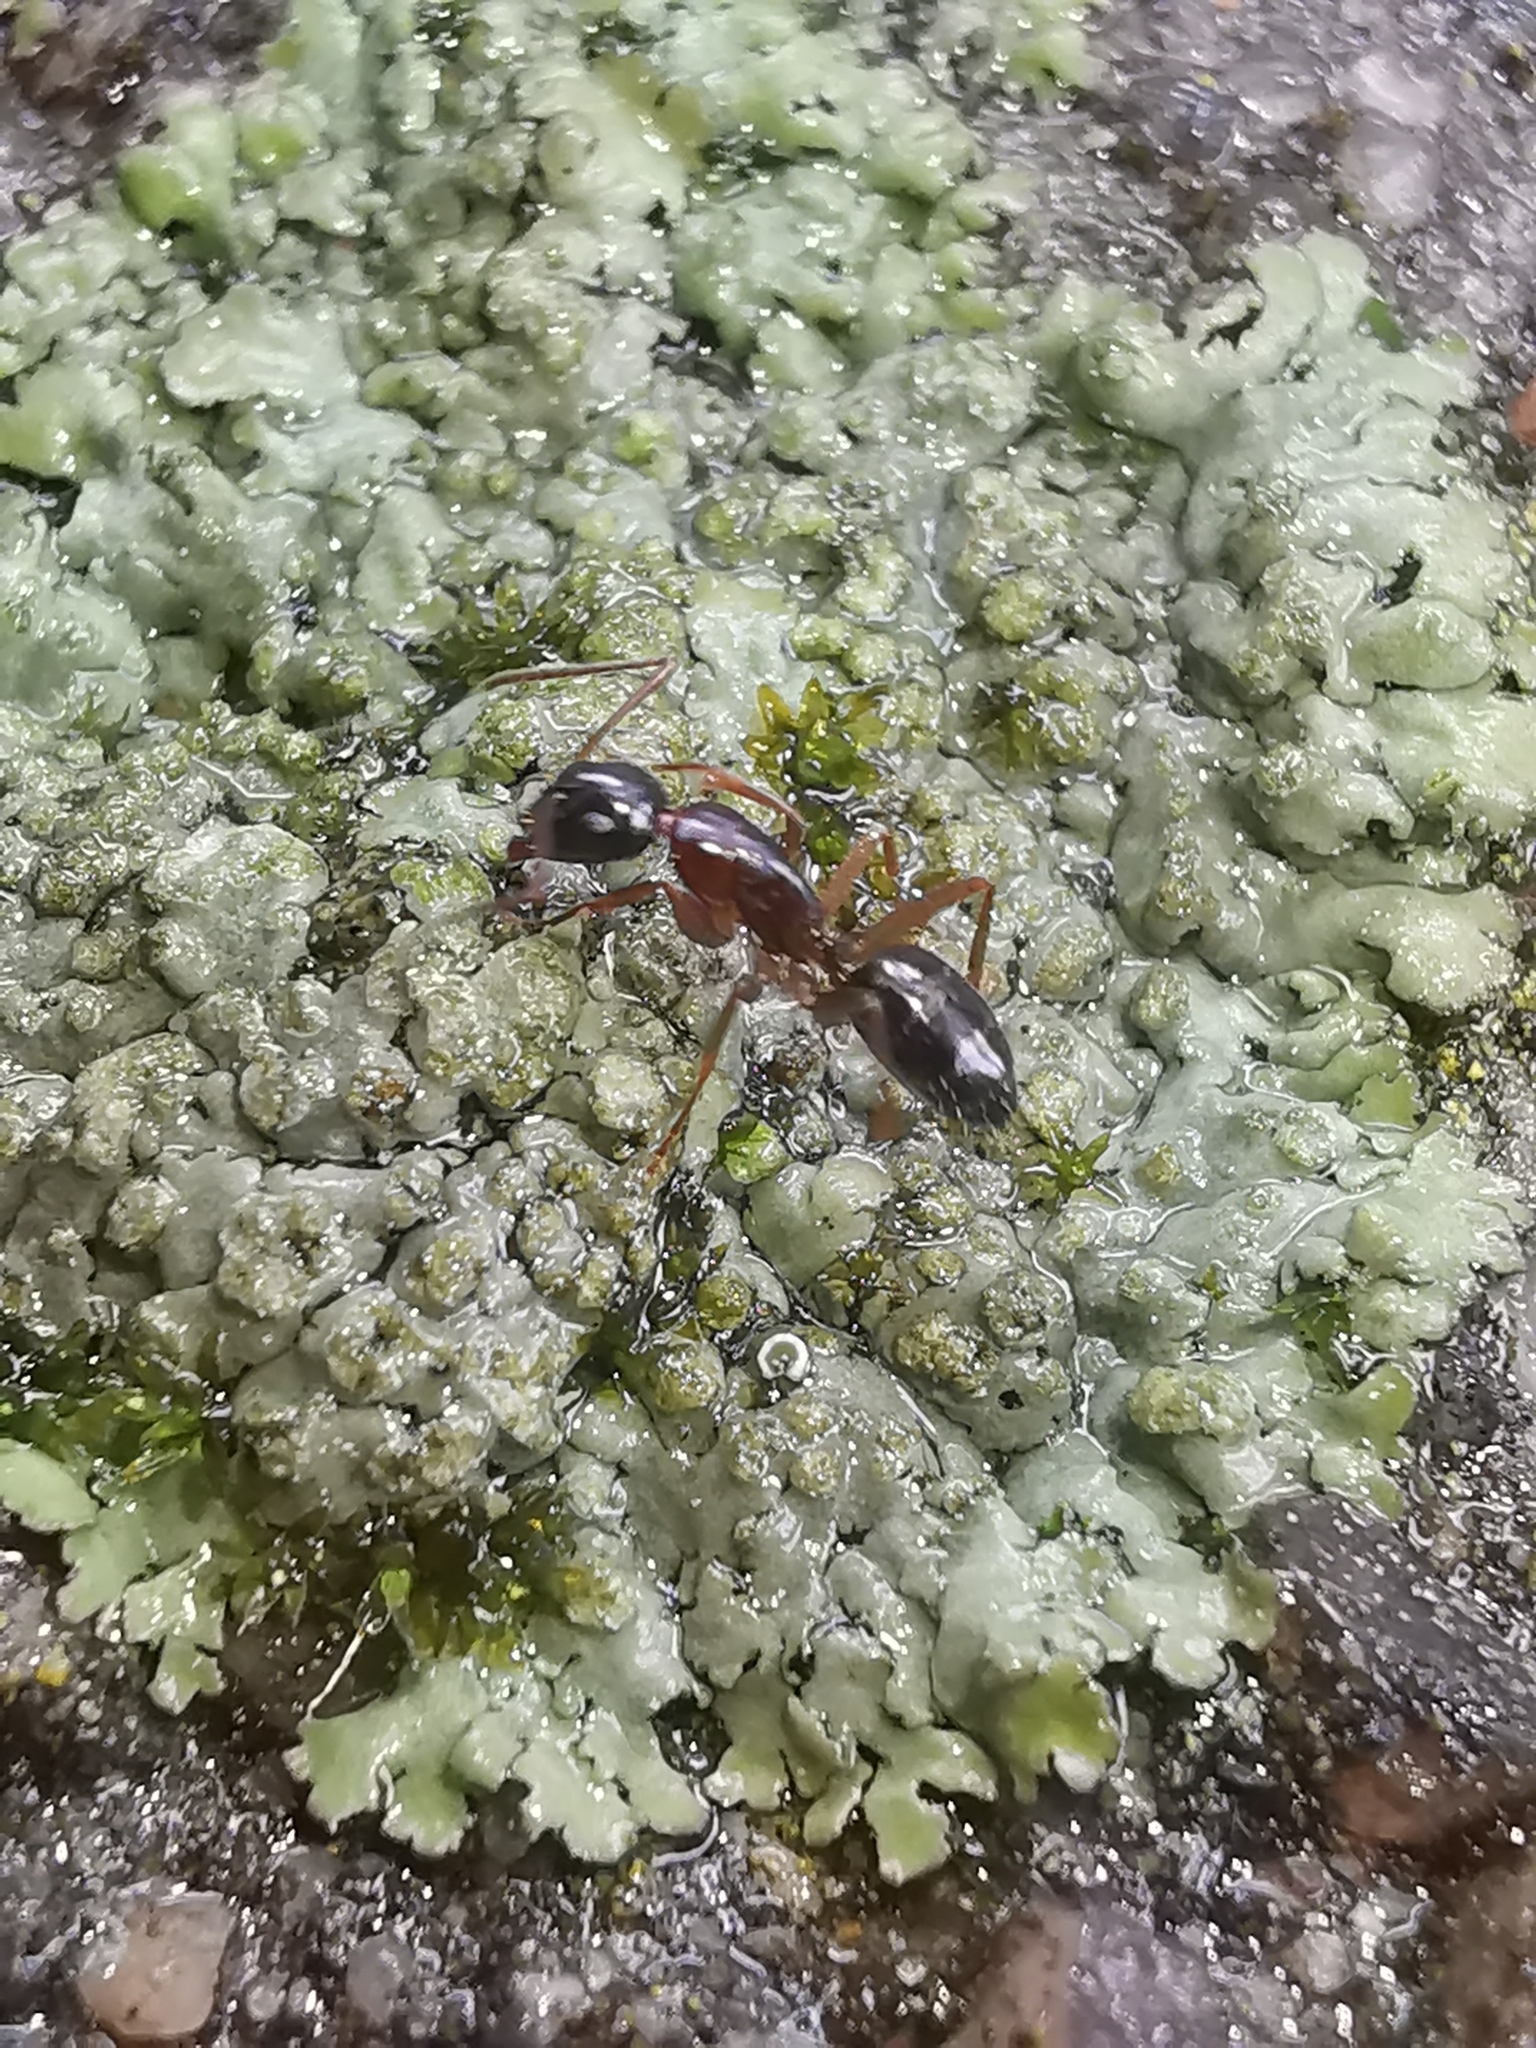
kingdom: Animalia
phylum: Arthropoda
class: Insecta
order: Hymenoptera
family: Formicidae
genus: Camponotus
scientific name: Camponotus fallax
